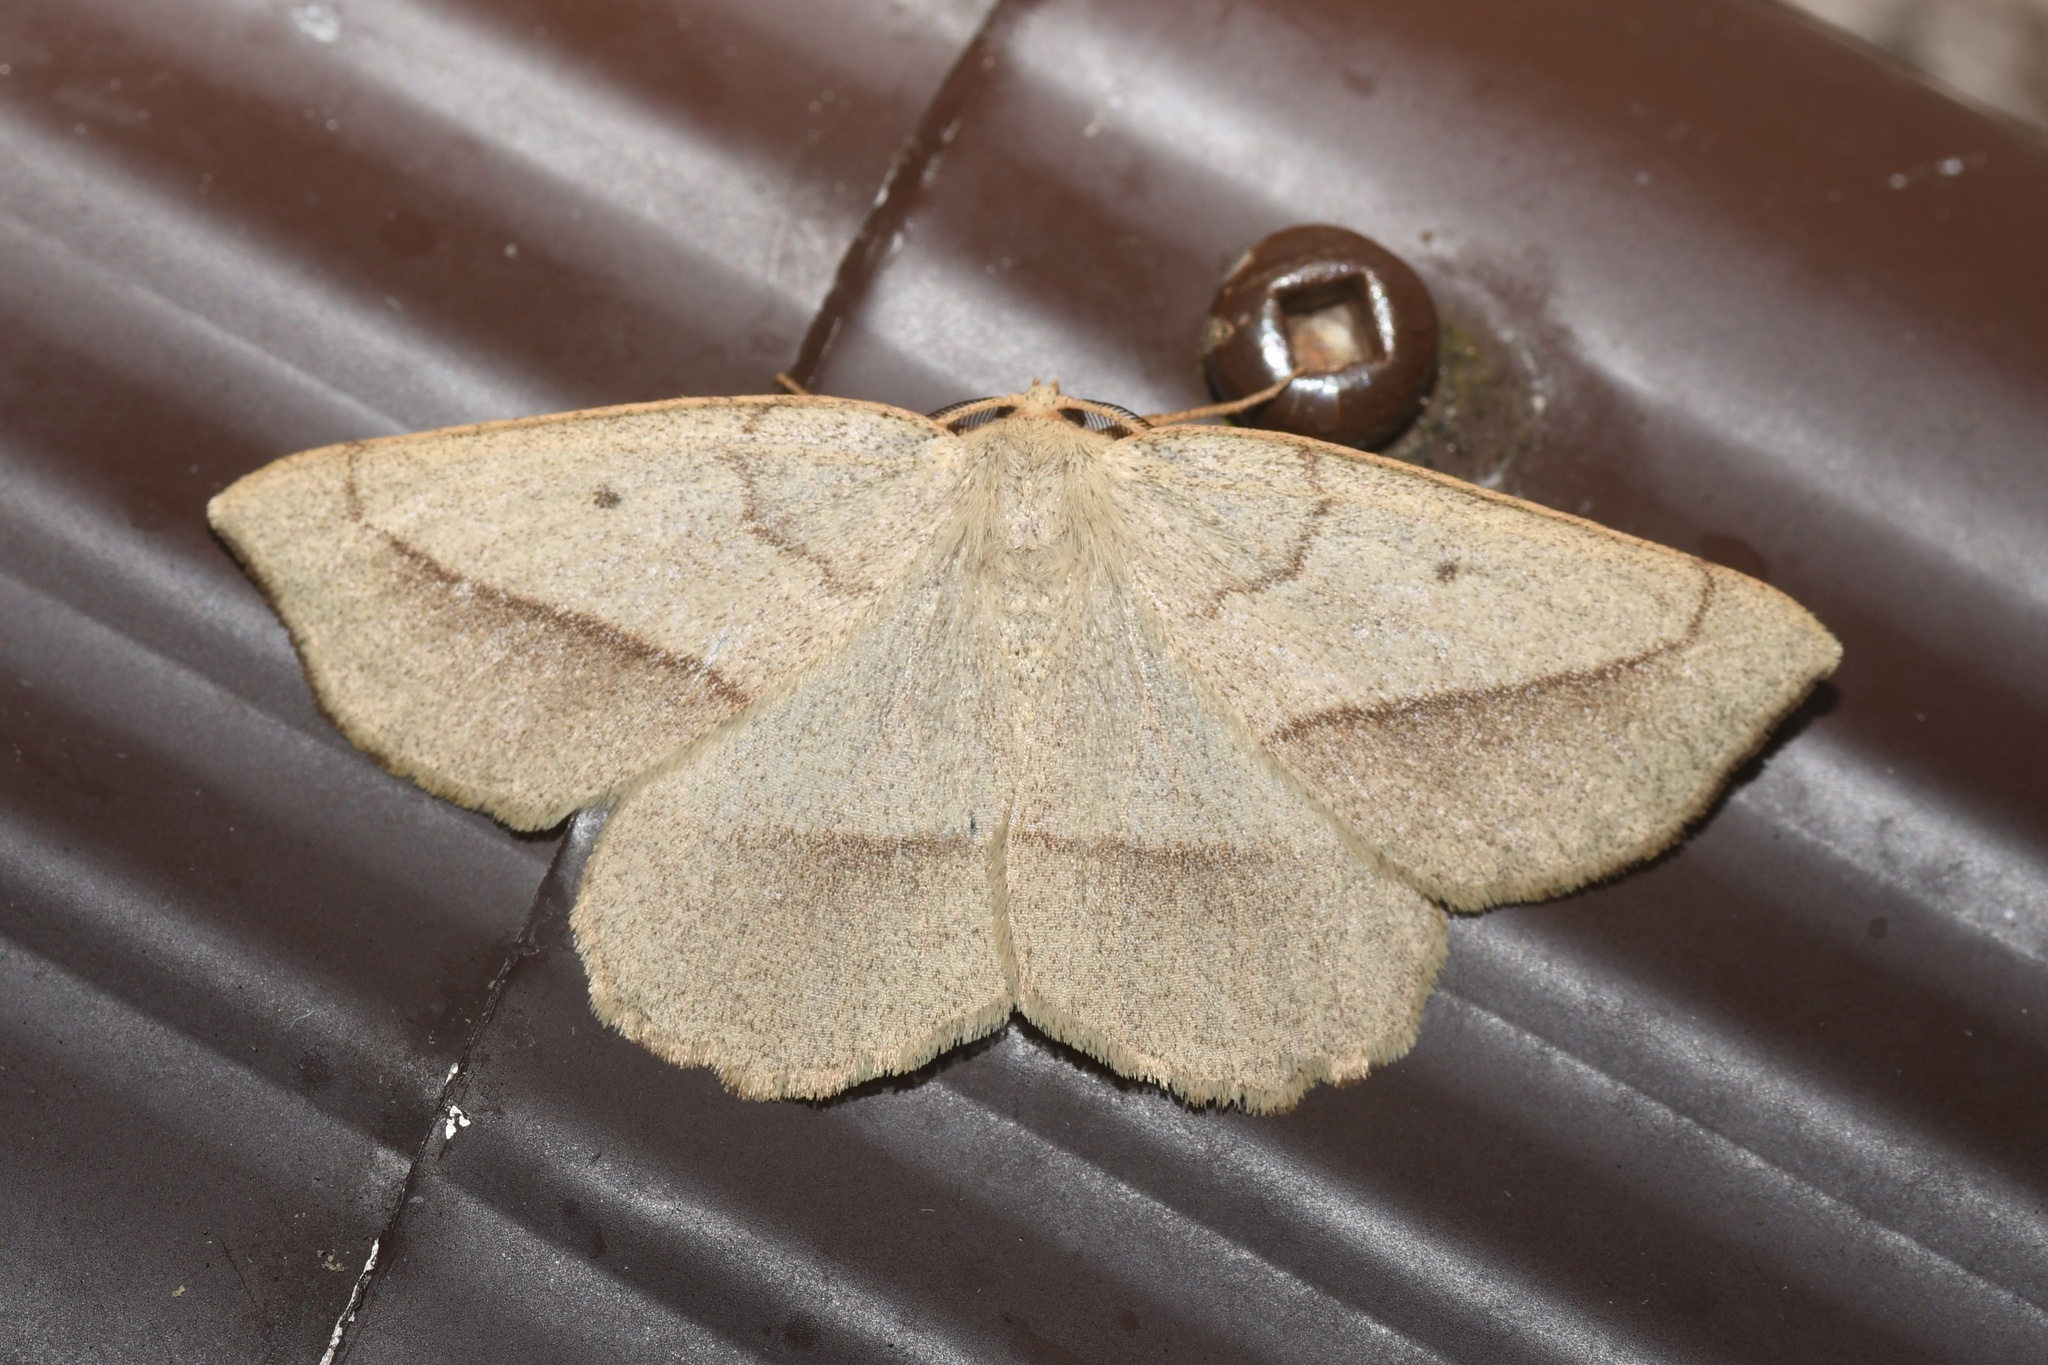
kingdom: Animalia
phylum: Arthropoda
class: Insecta
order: Lepidoptera
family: Geometridae
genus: Euchlaena
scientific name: Euchlaena irraria
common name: Least-marked euchlaena
